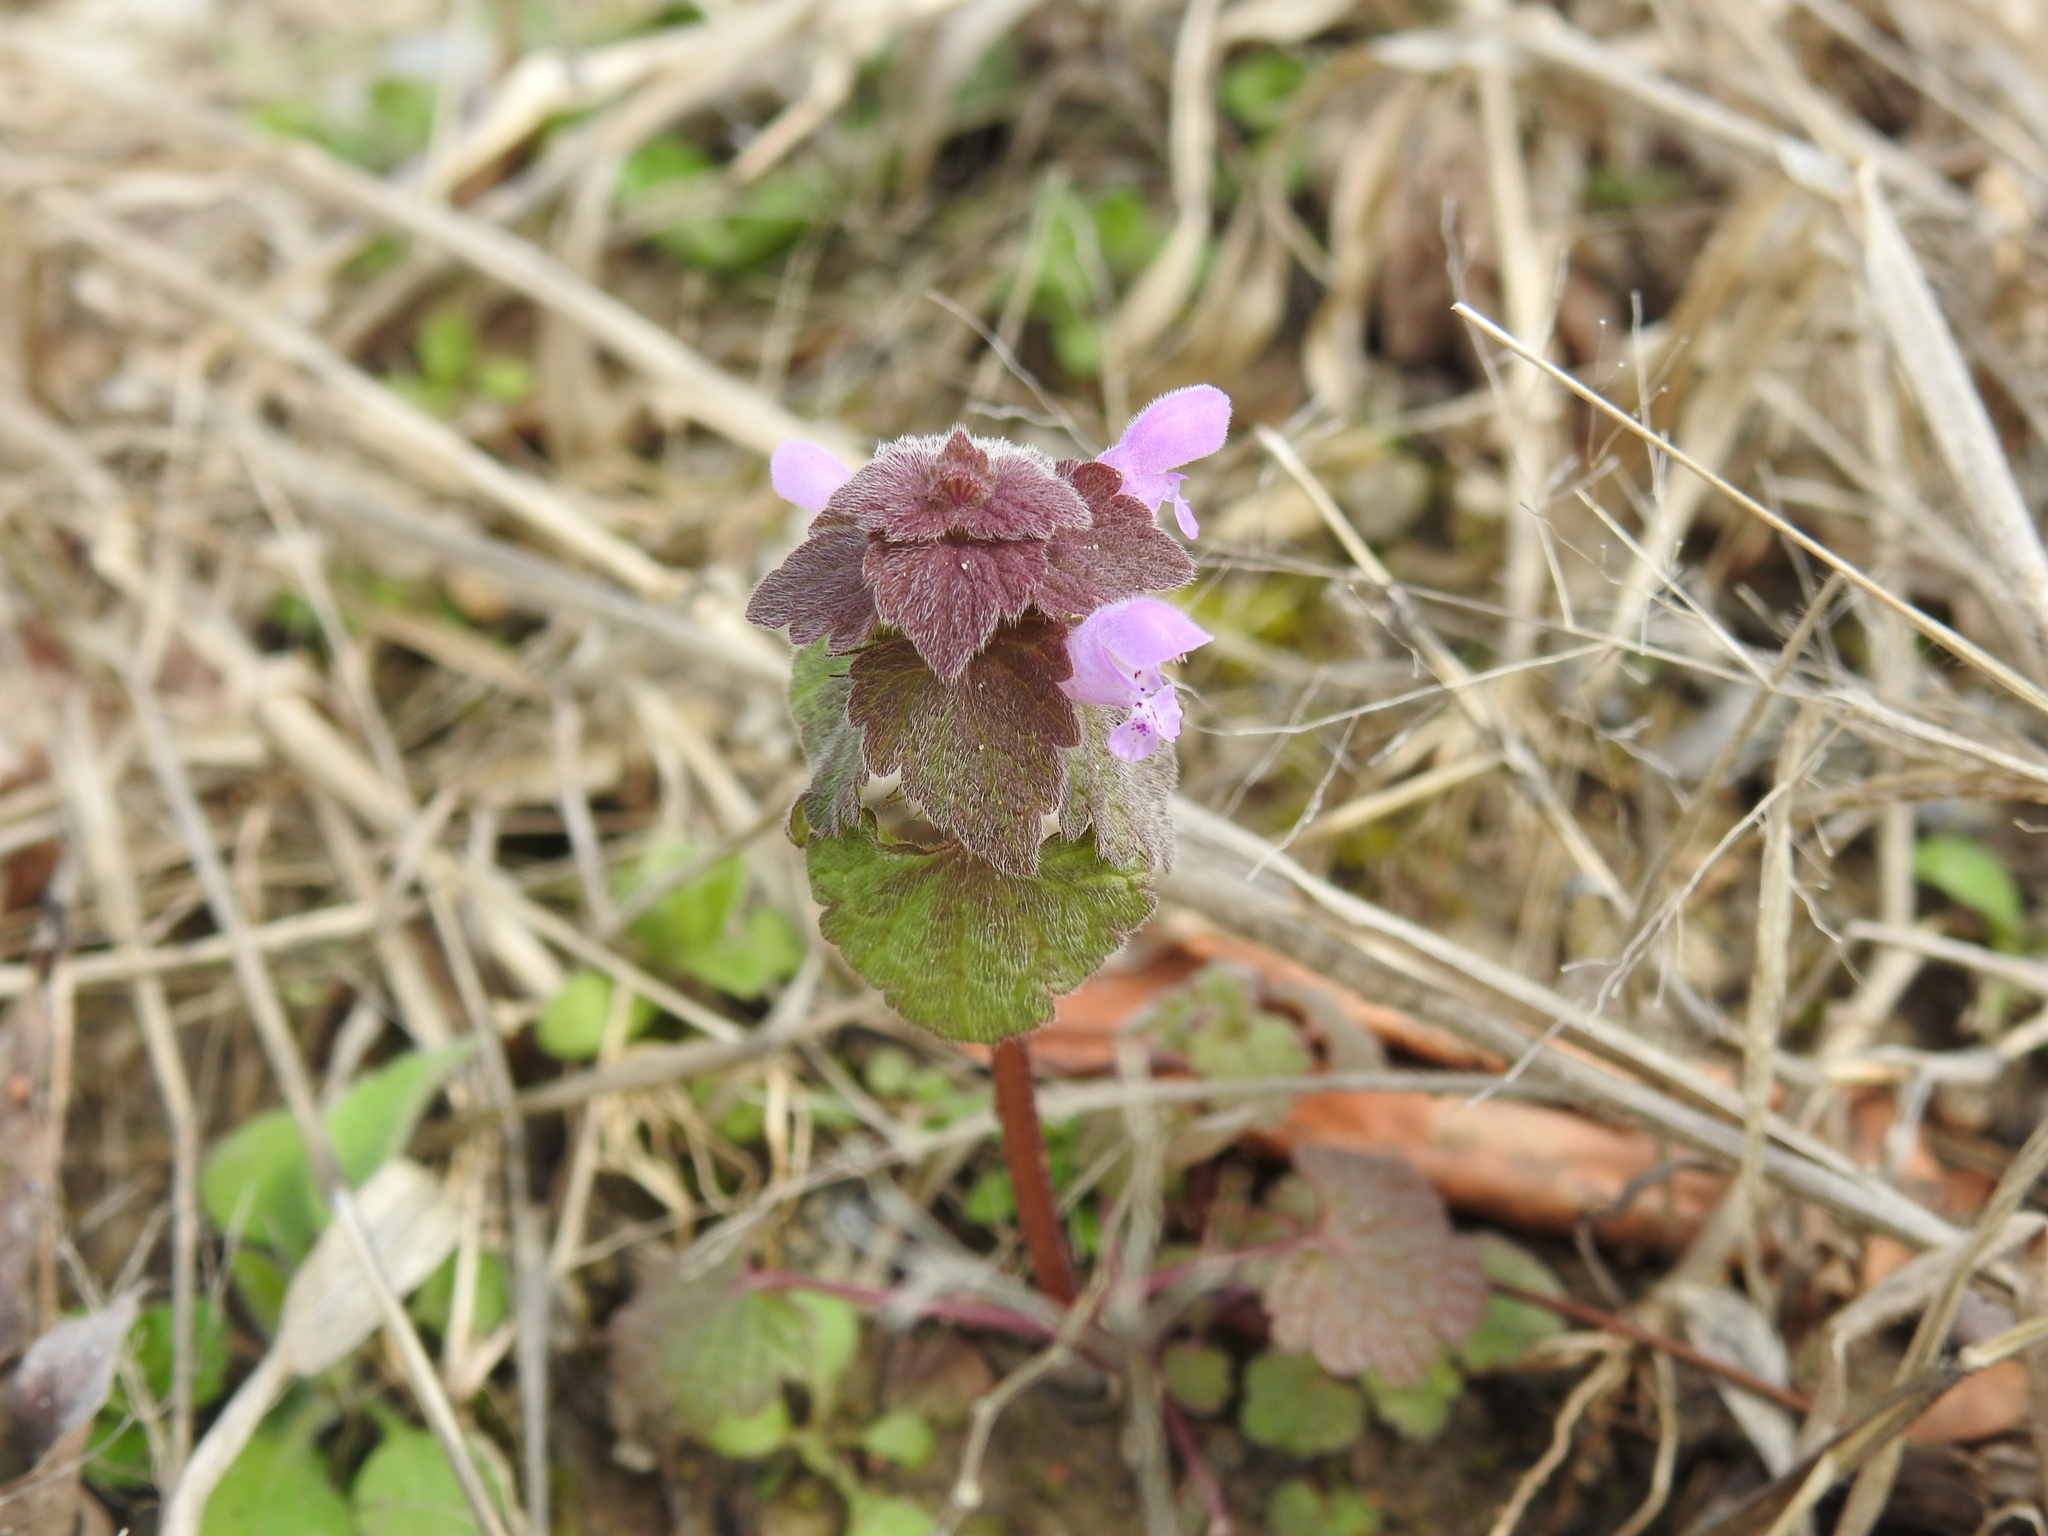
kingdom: Plantae
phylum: Tracheophyta
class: Magnoliopsida
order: Lamiales
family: Lamiaceae
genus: Lamium
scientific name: Lamium purpureum
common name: Red dead-nettle
